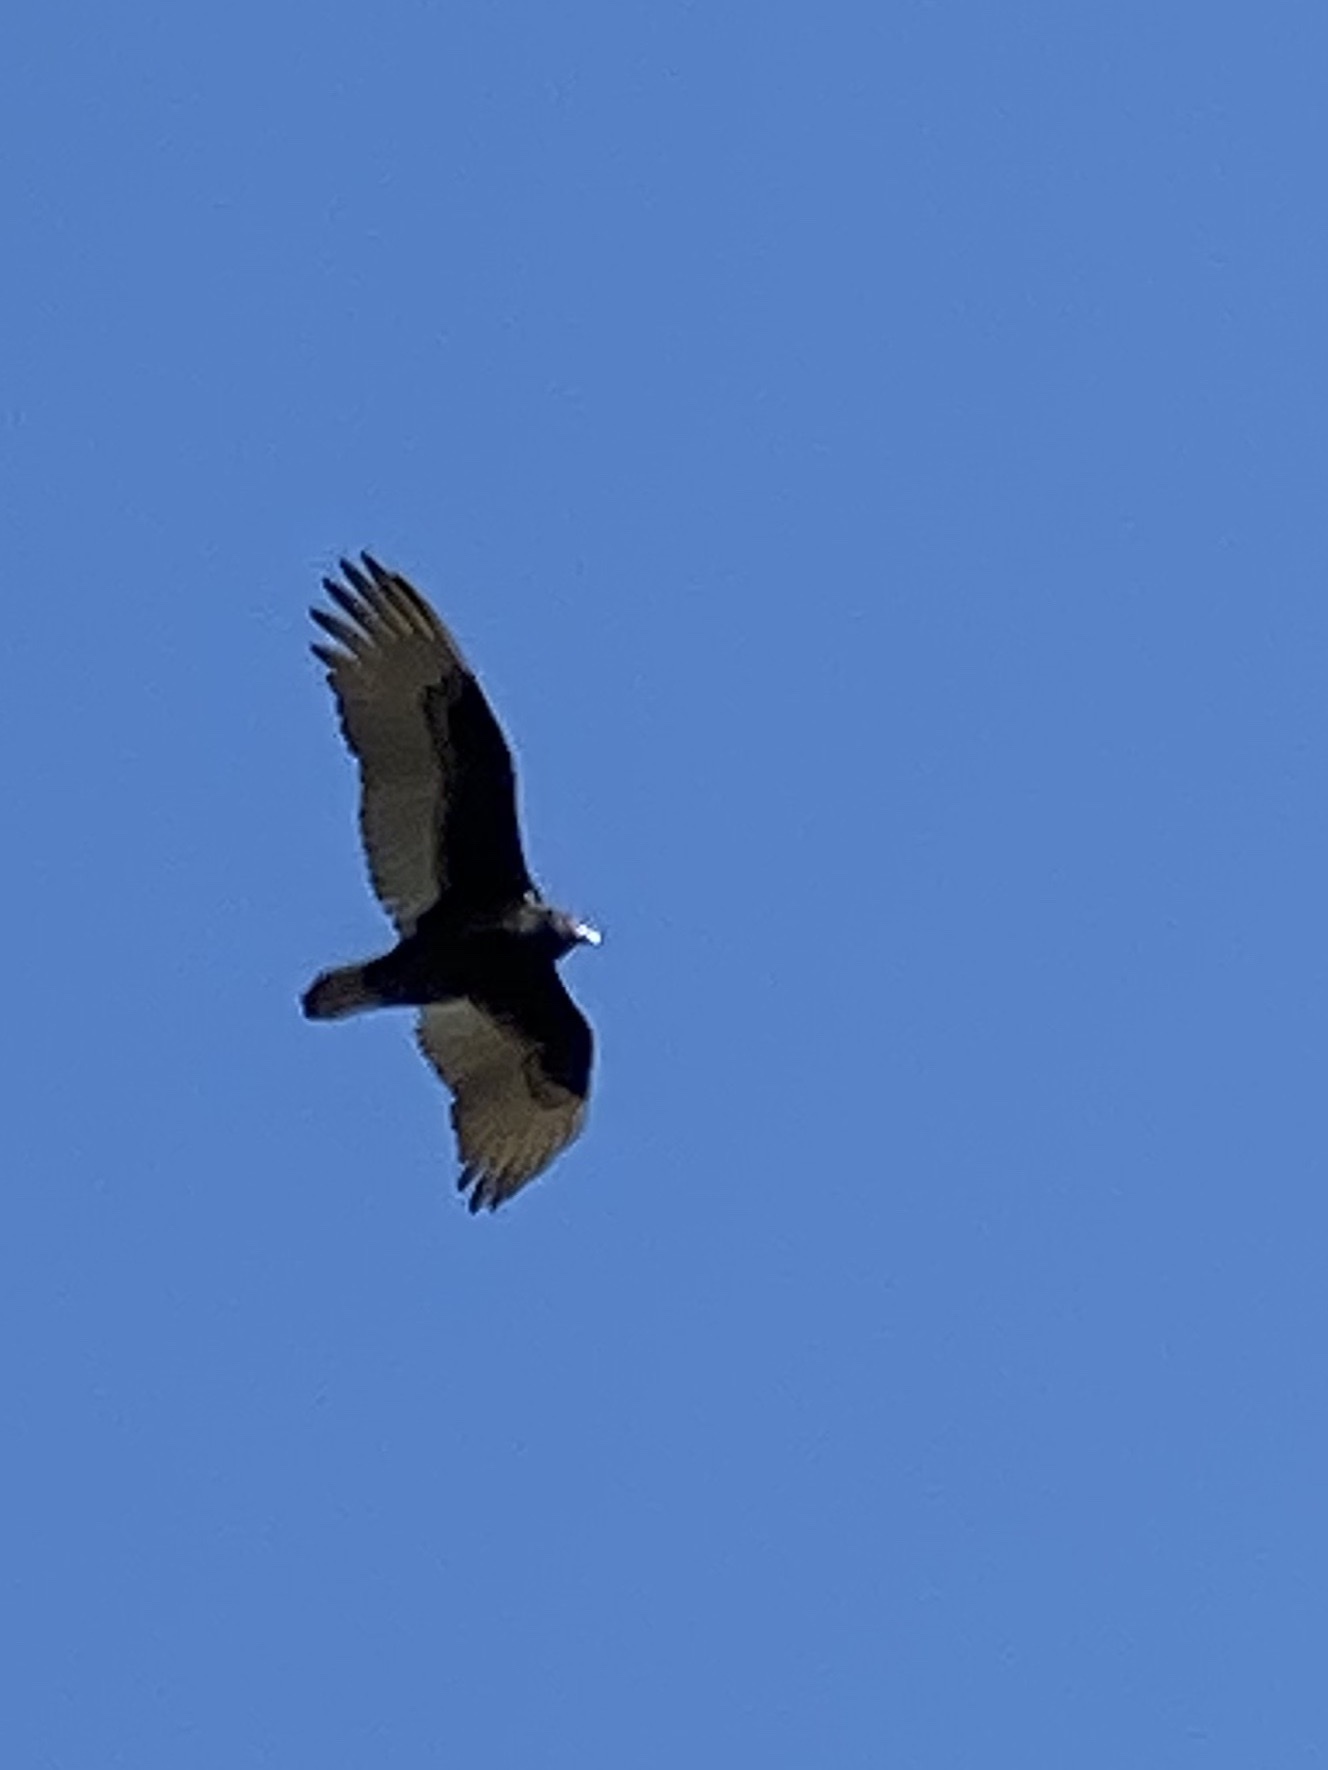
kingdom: Animalia
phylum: Chordata
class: Aves
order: Accipitriformes
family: Cathartidae
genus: Cathartes
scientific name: Cathartes aura
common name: Turkey vulture
